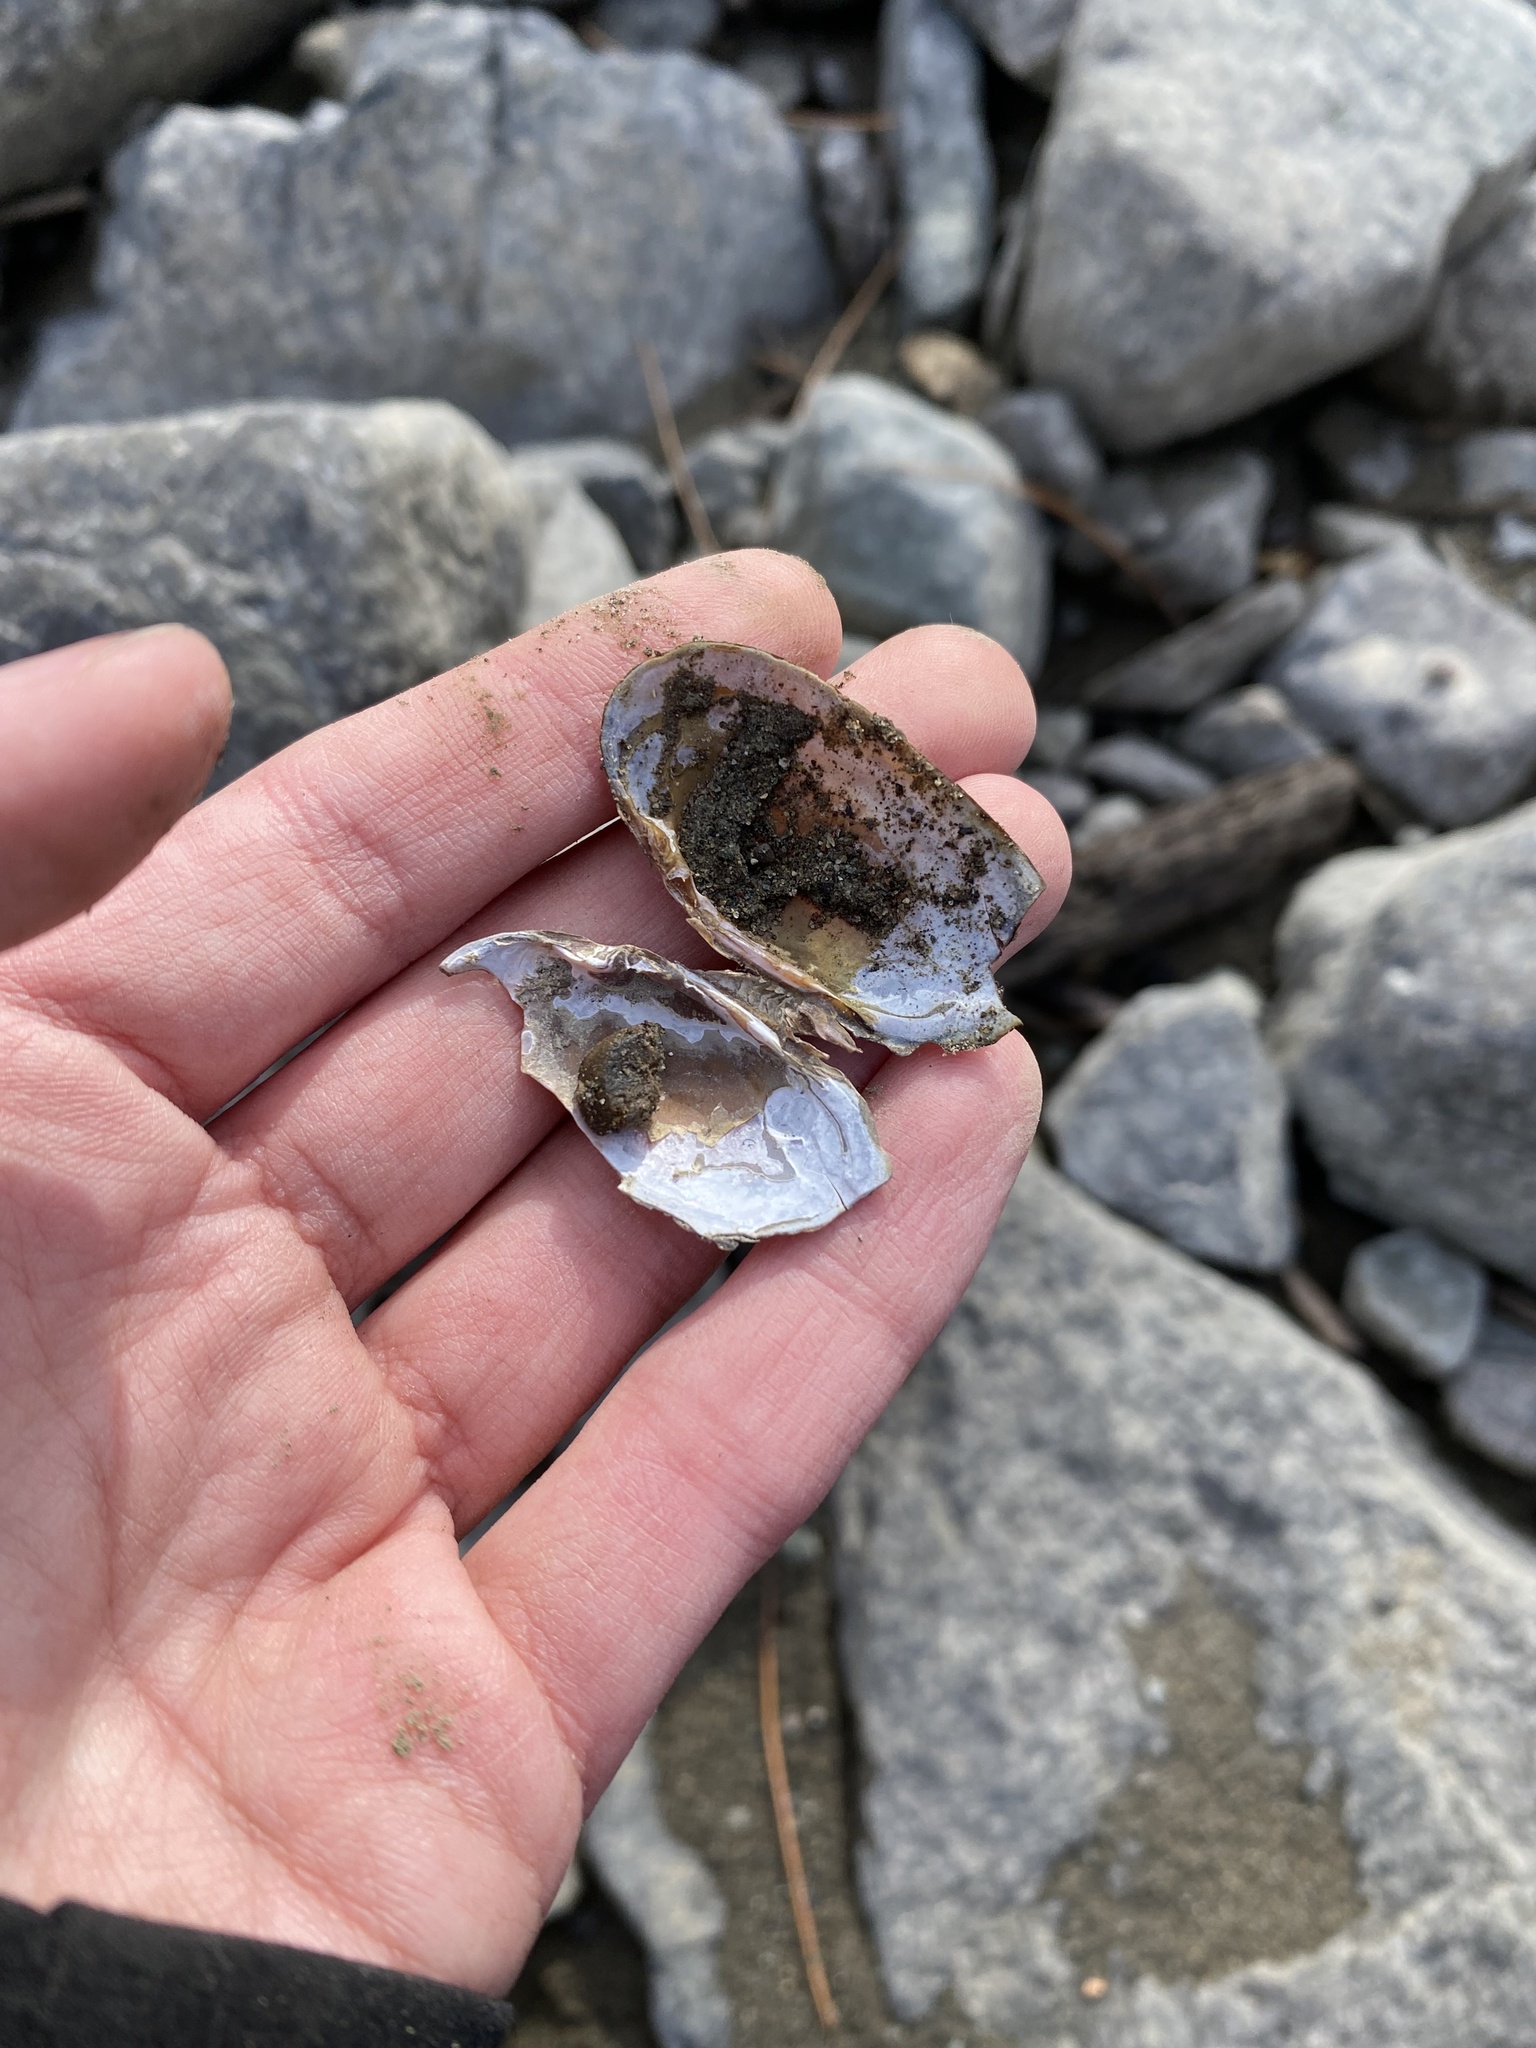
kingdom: Animalia
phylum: Mollusca
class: Bivalvia
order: Unionida
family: Margaritiferidae
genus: Margaritifera
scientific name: Margaritifera falcata
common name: Western pearlshell
